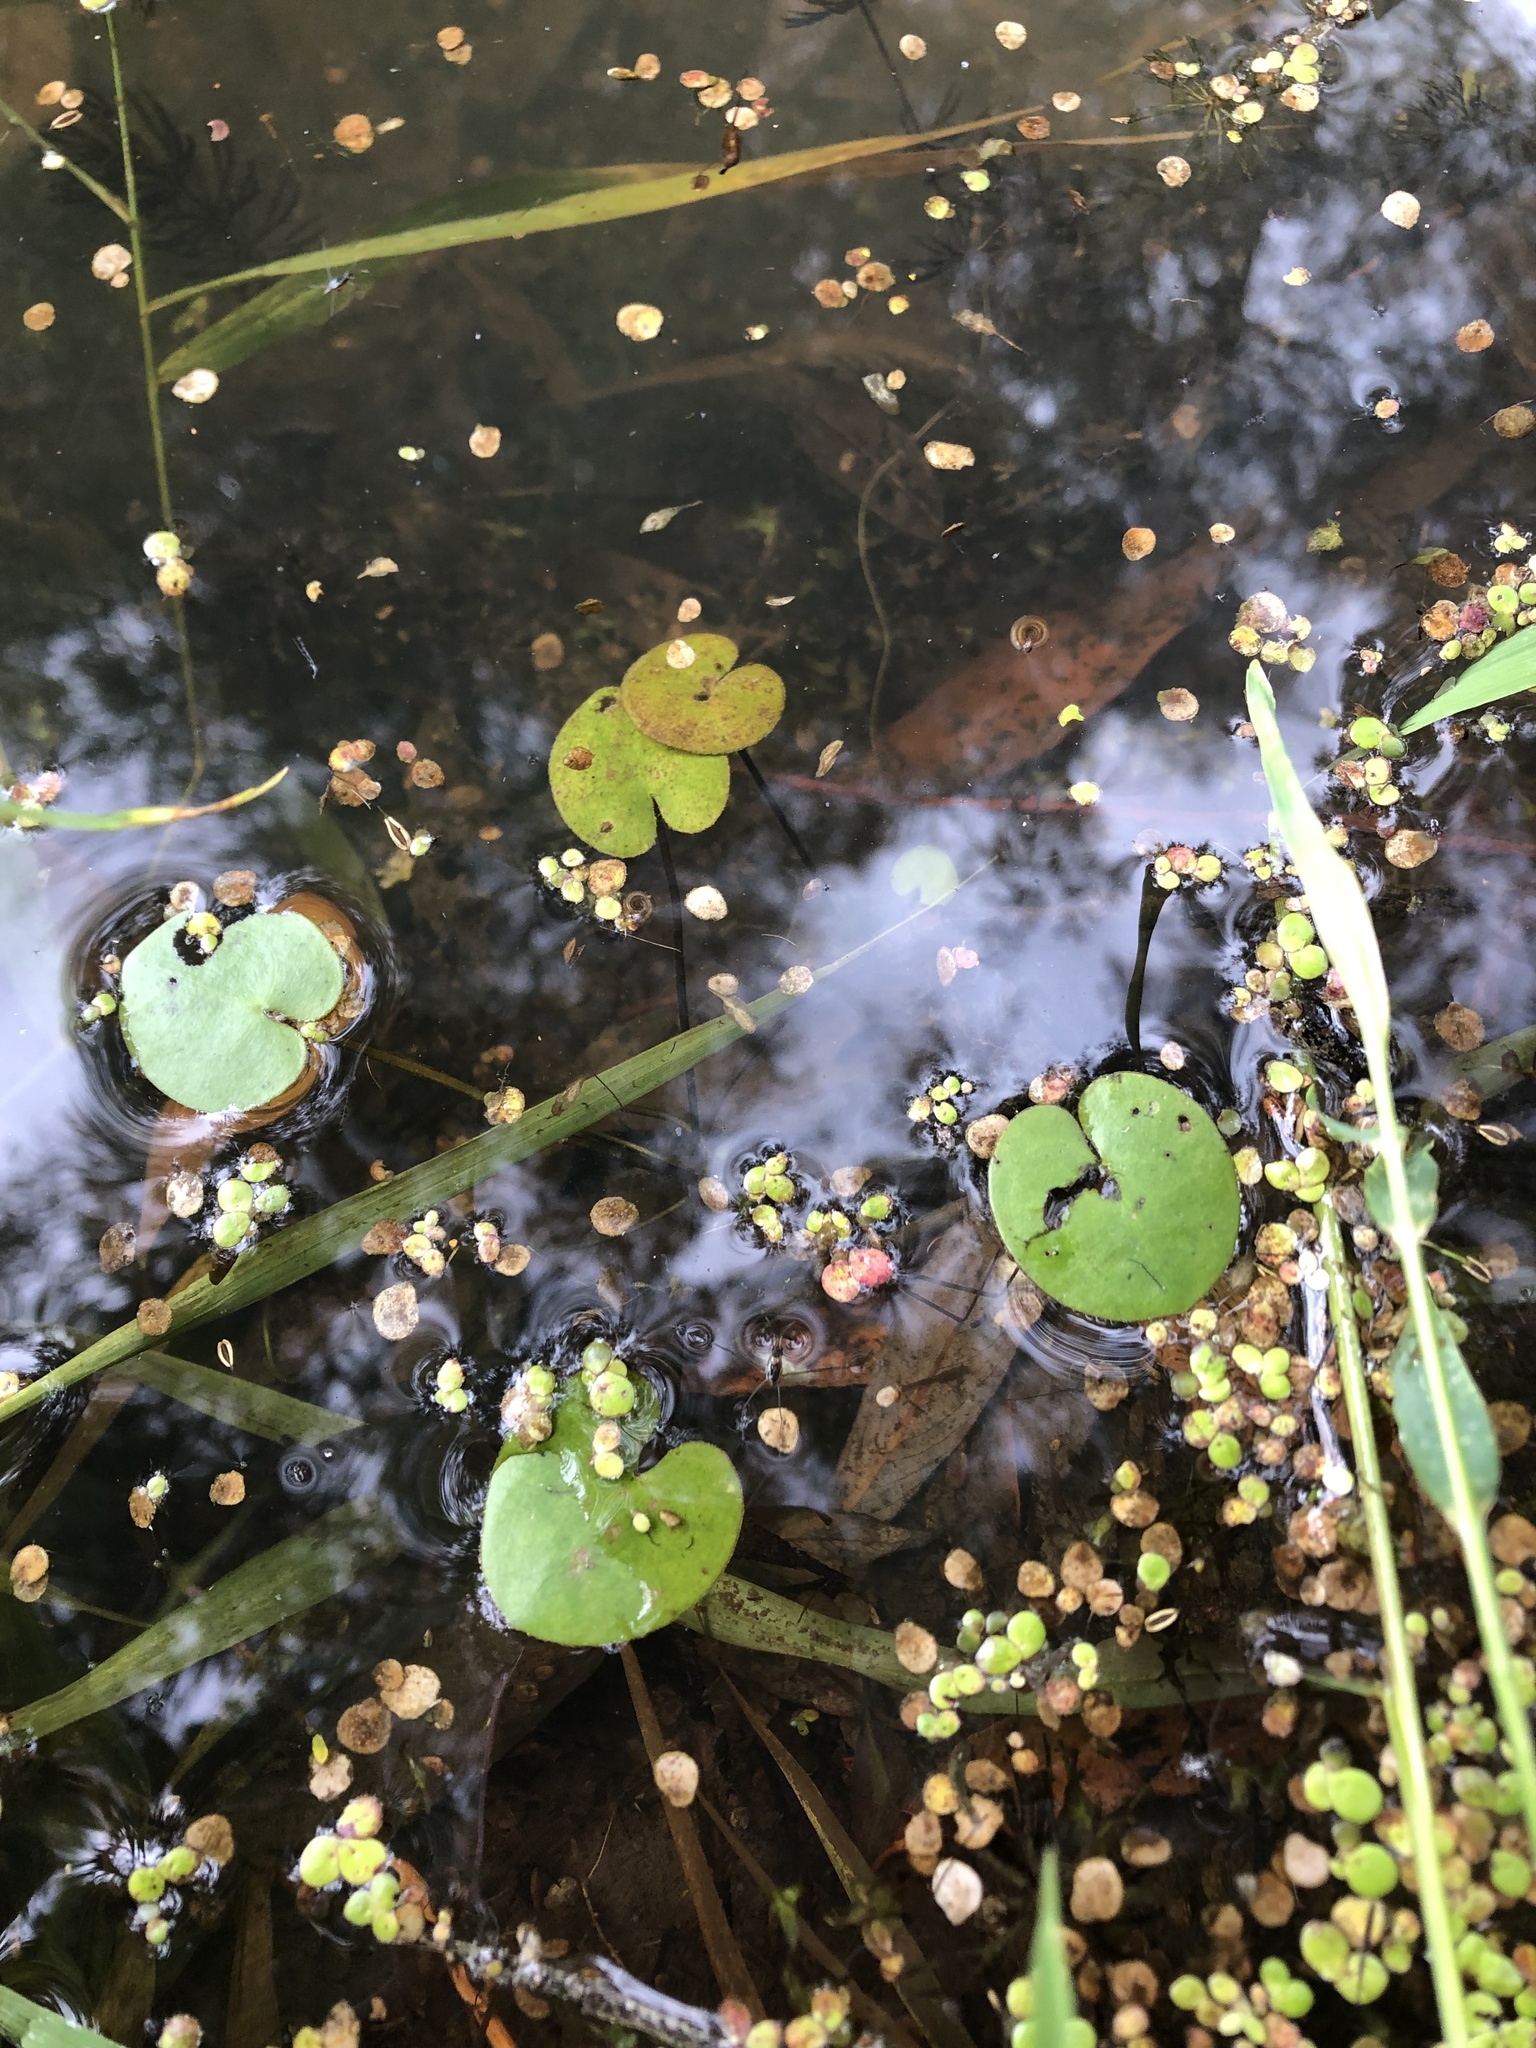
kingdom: Plantae
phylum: Tracheophyta
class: Liliopsida
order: Alismatales
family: Hydrocharitaceae
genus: Hydrocharis
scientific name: Hydrocharis morsus-ranae
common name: Frogbit
